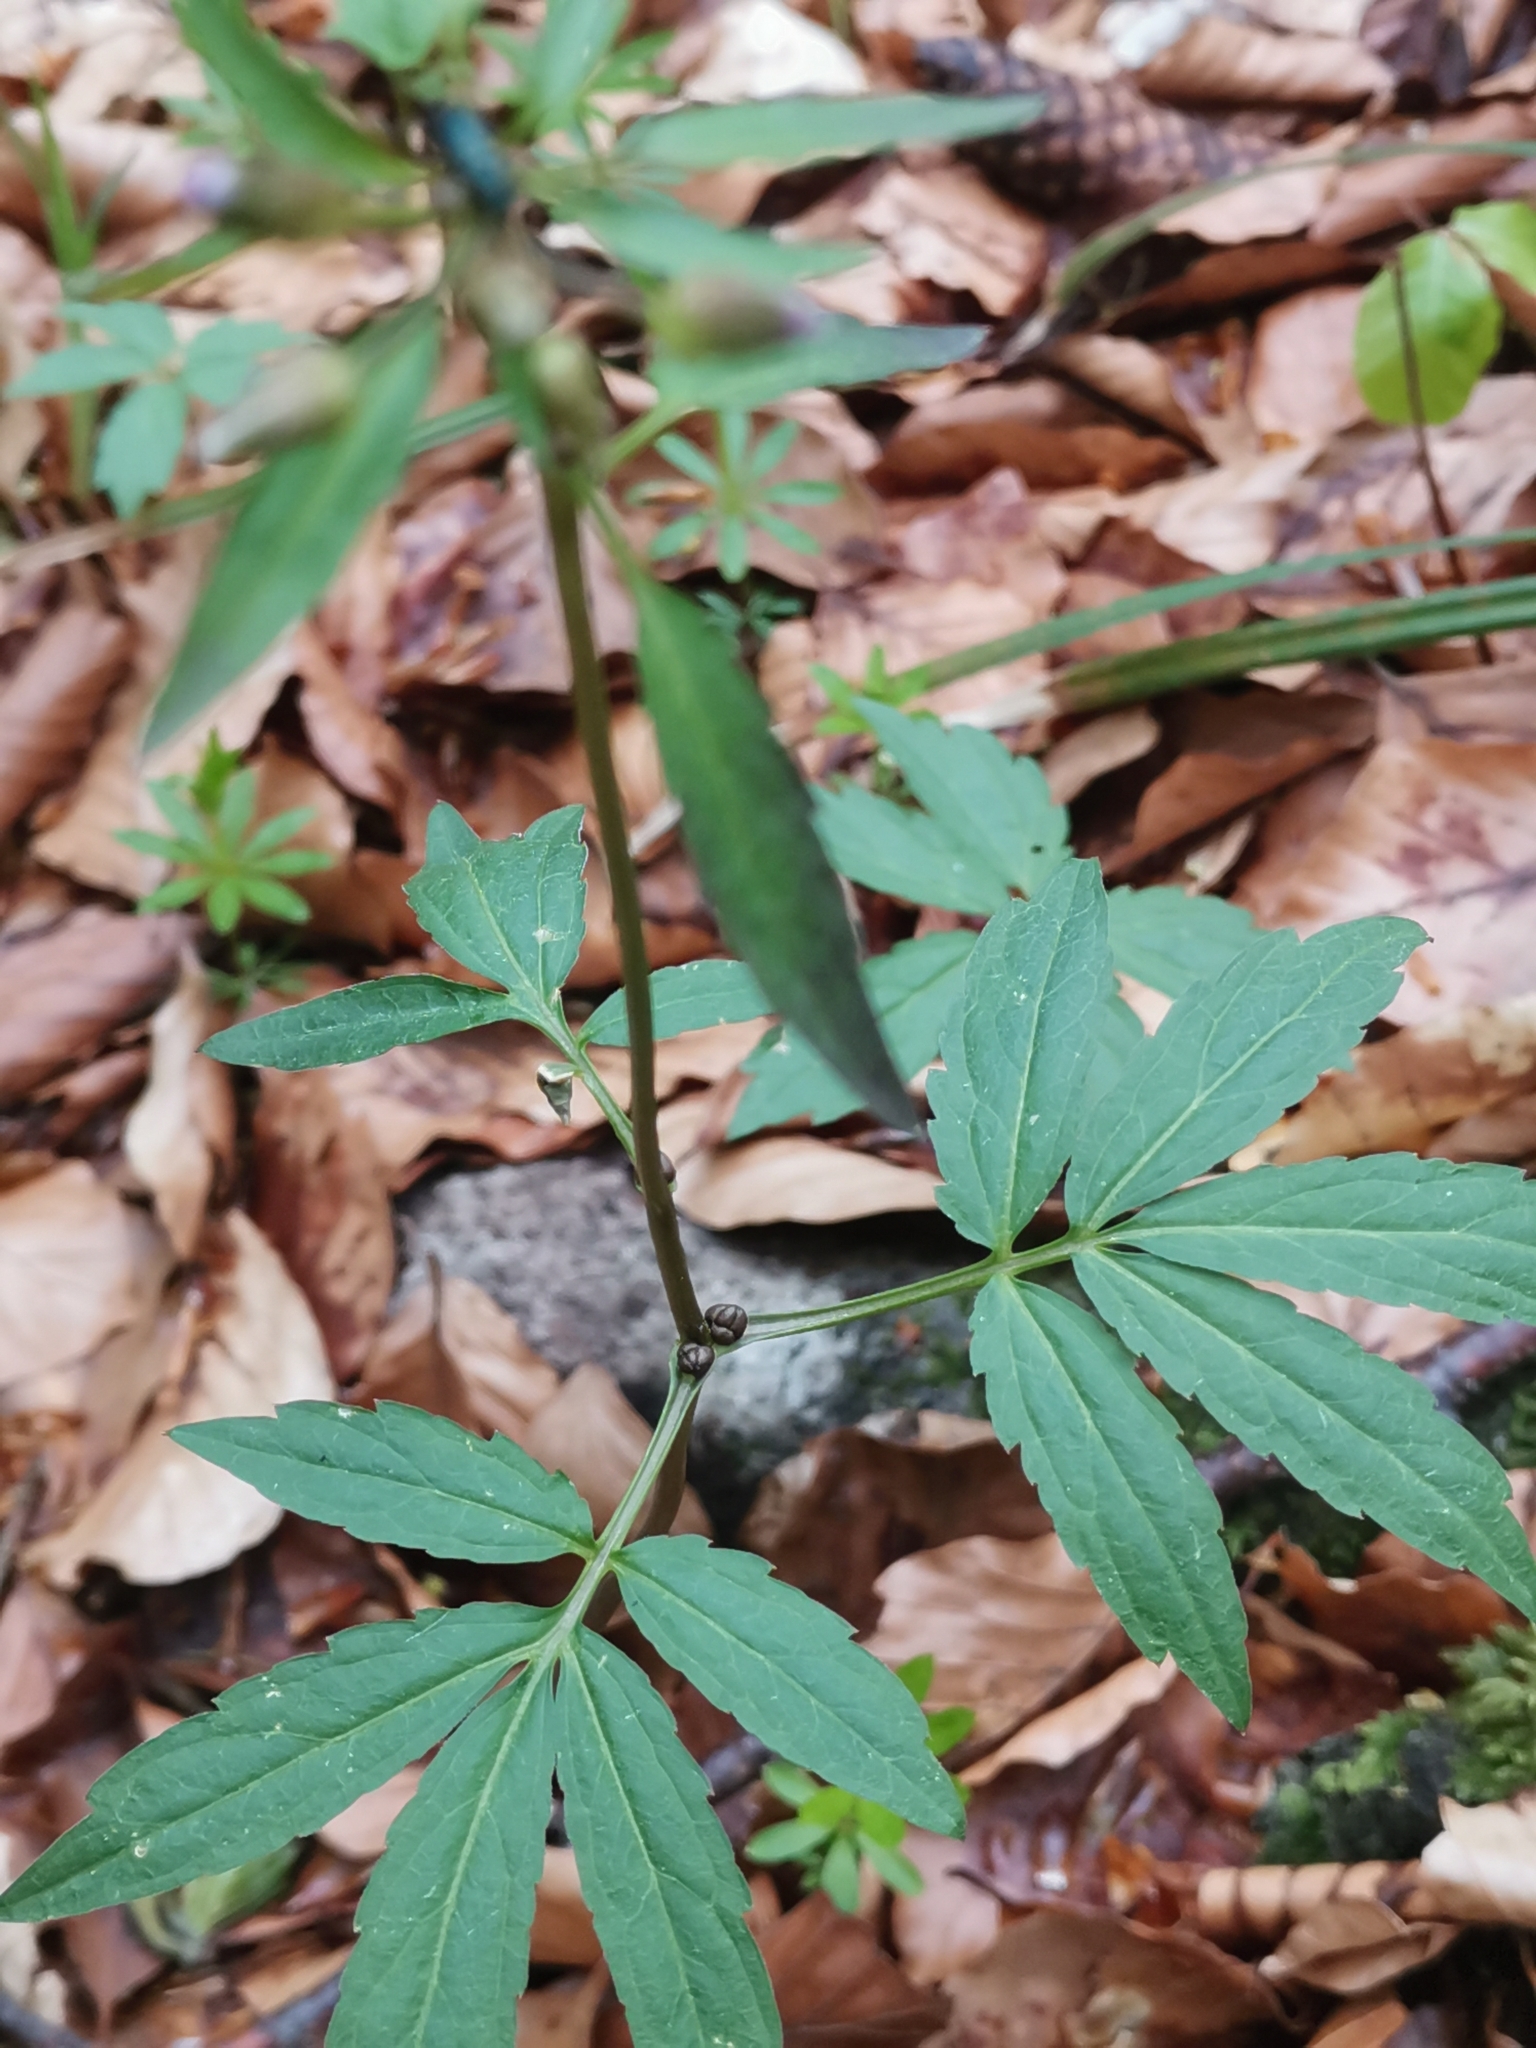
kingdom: Plantae
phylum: Tracheophyta
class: Magnoliopsida
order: Brassicales
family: Brassicaceae
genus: Cardamine
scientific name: Cardamine bulbifera
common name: Coralroot bittercress
